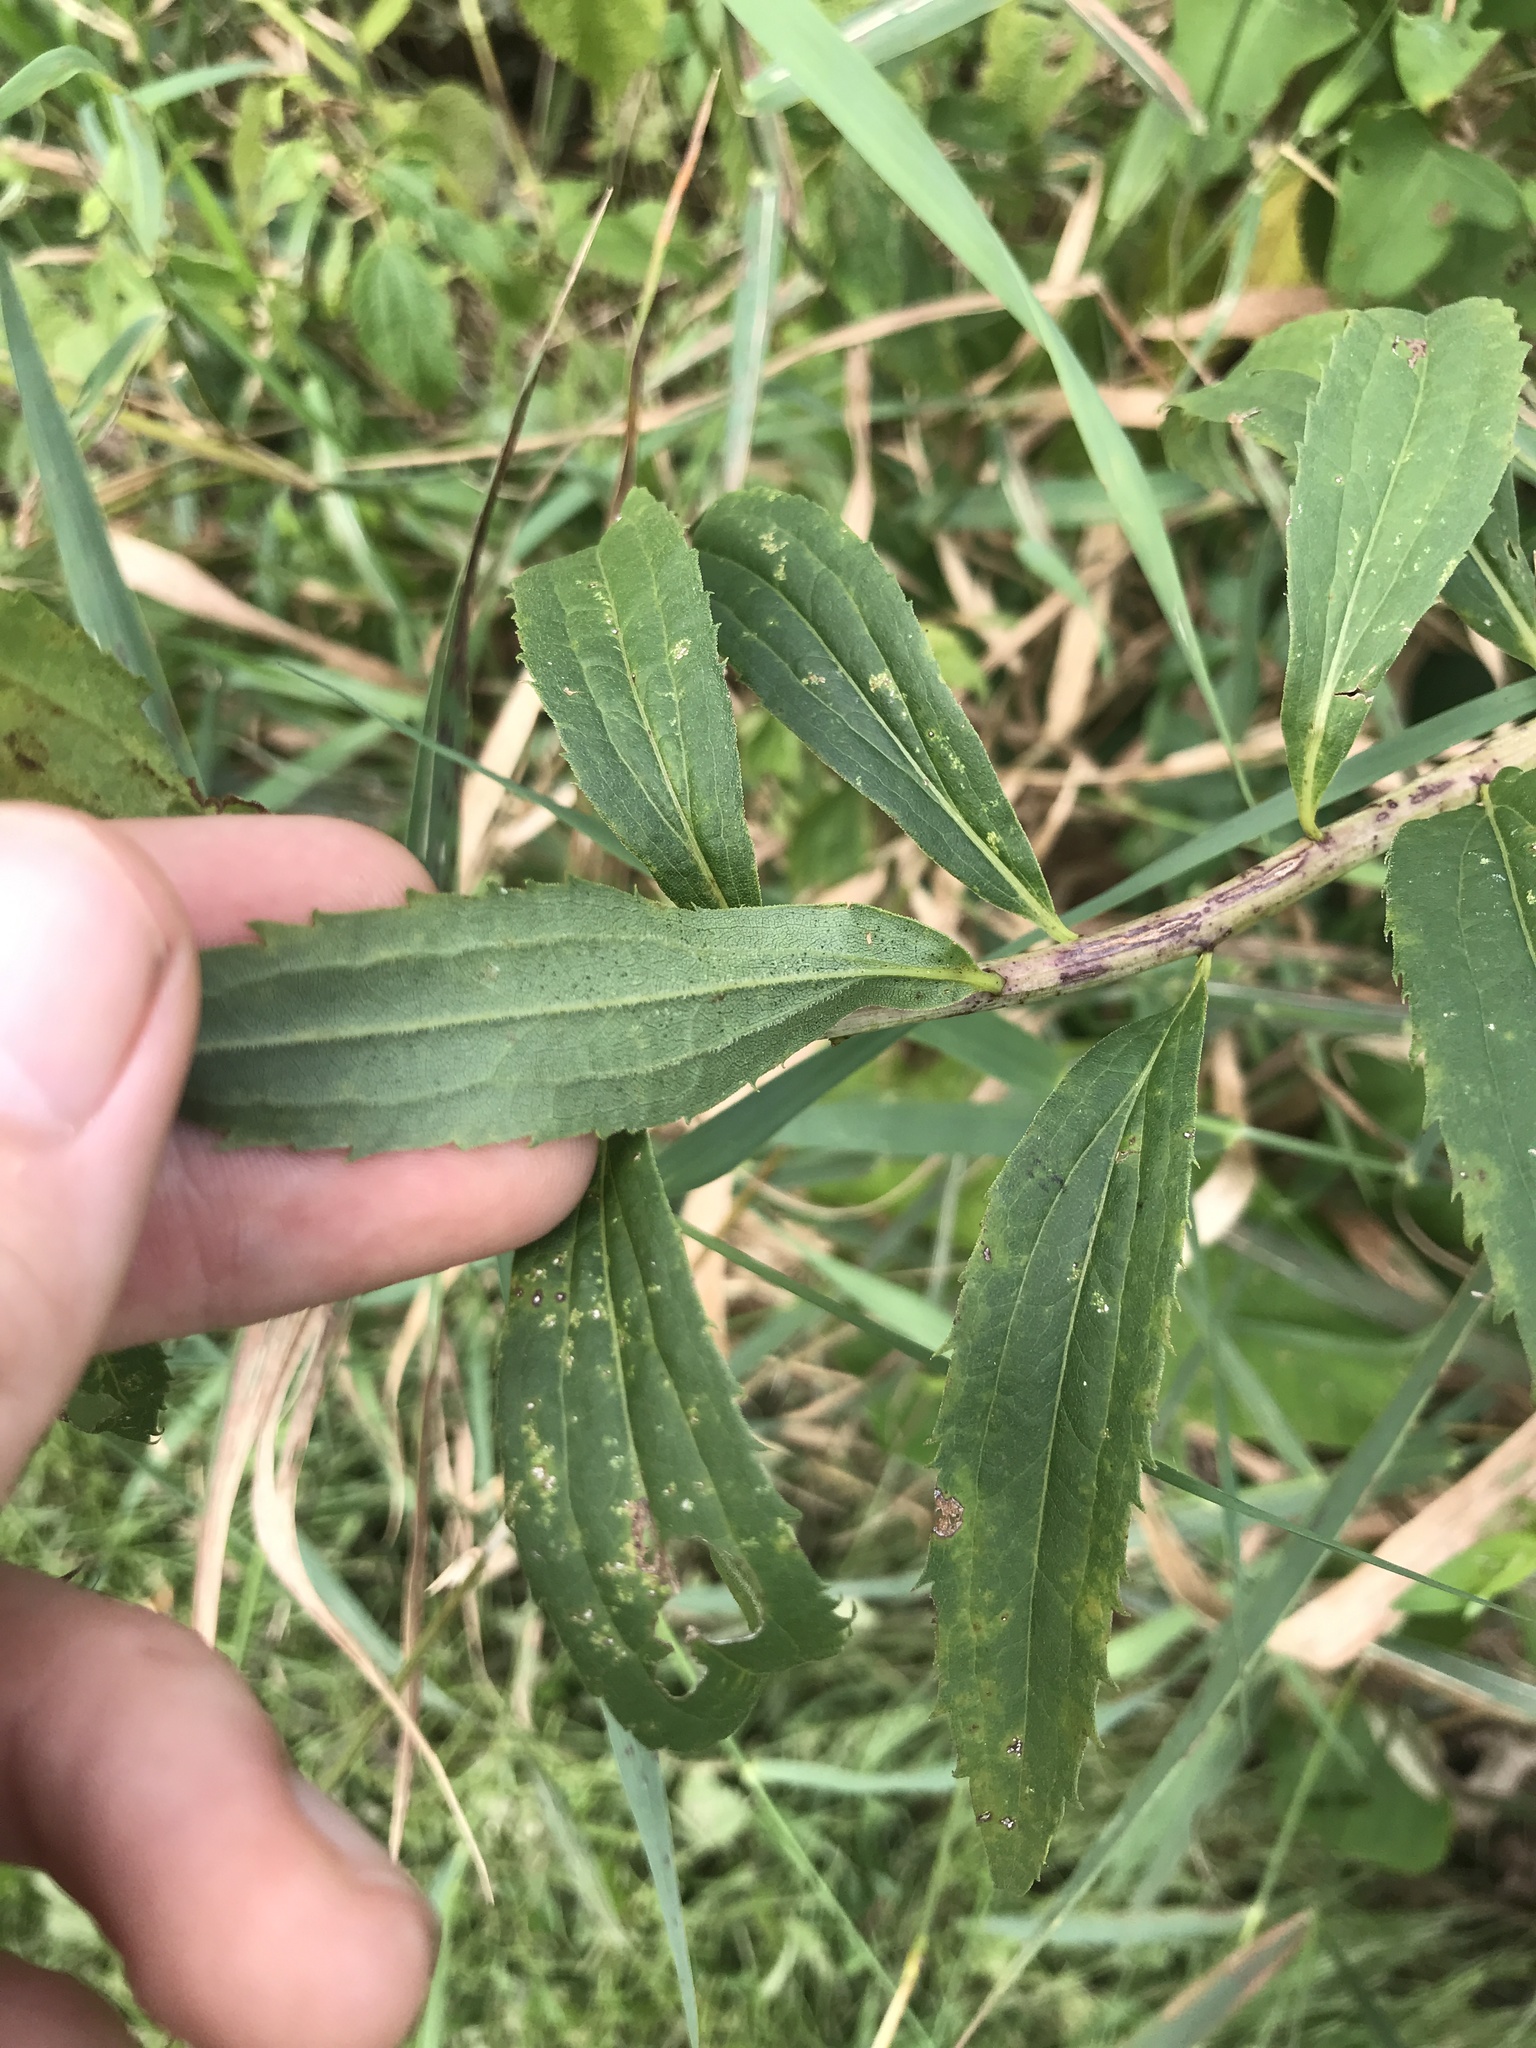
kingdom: Plantae
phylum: Tracheophyta
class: Magnoliopsida
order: Asterales
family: Asteraceae
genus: Solidago
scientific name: Solidago gigantea
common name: Giant goldenrod
